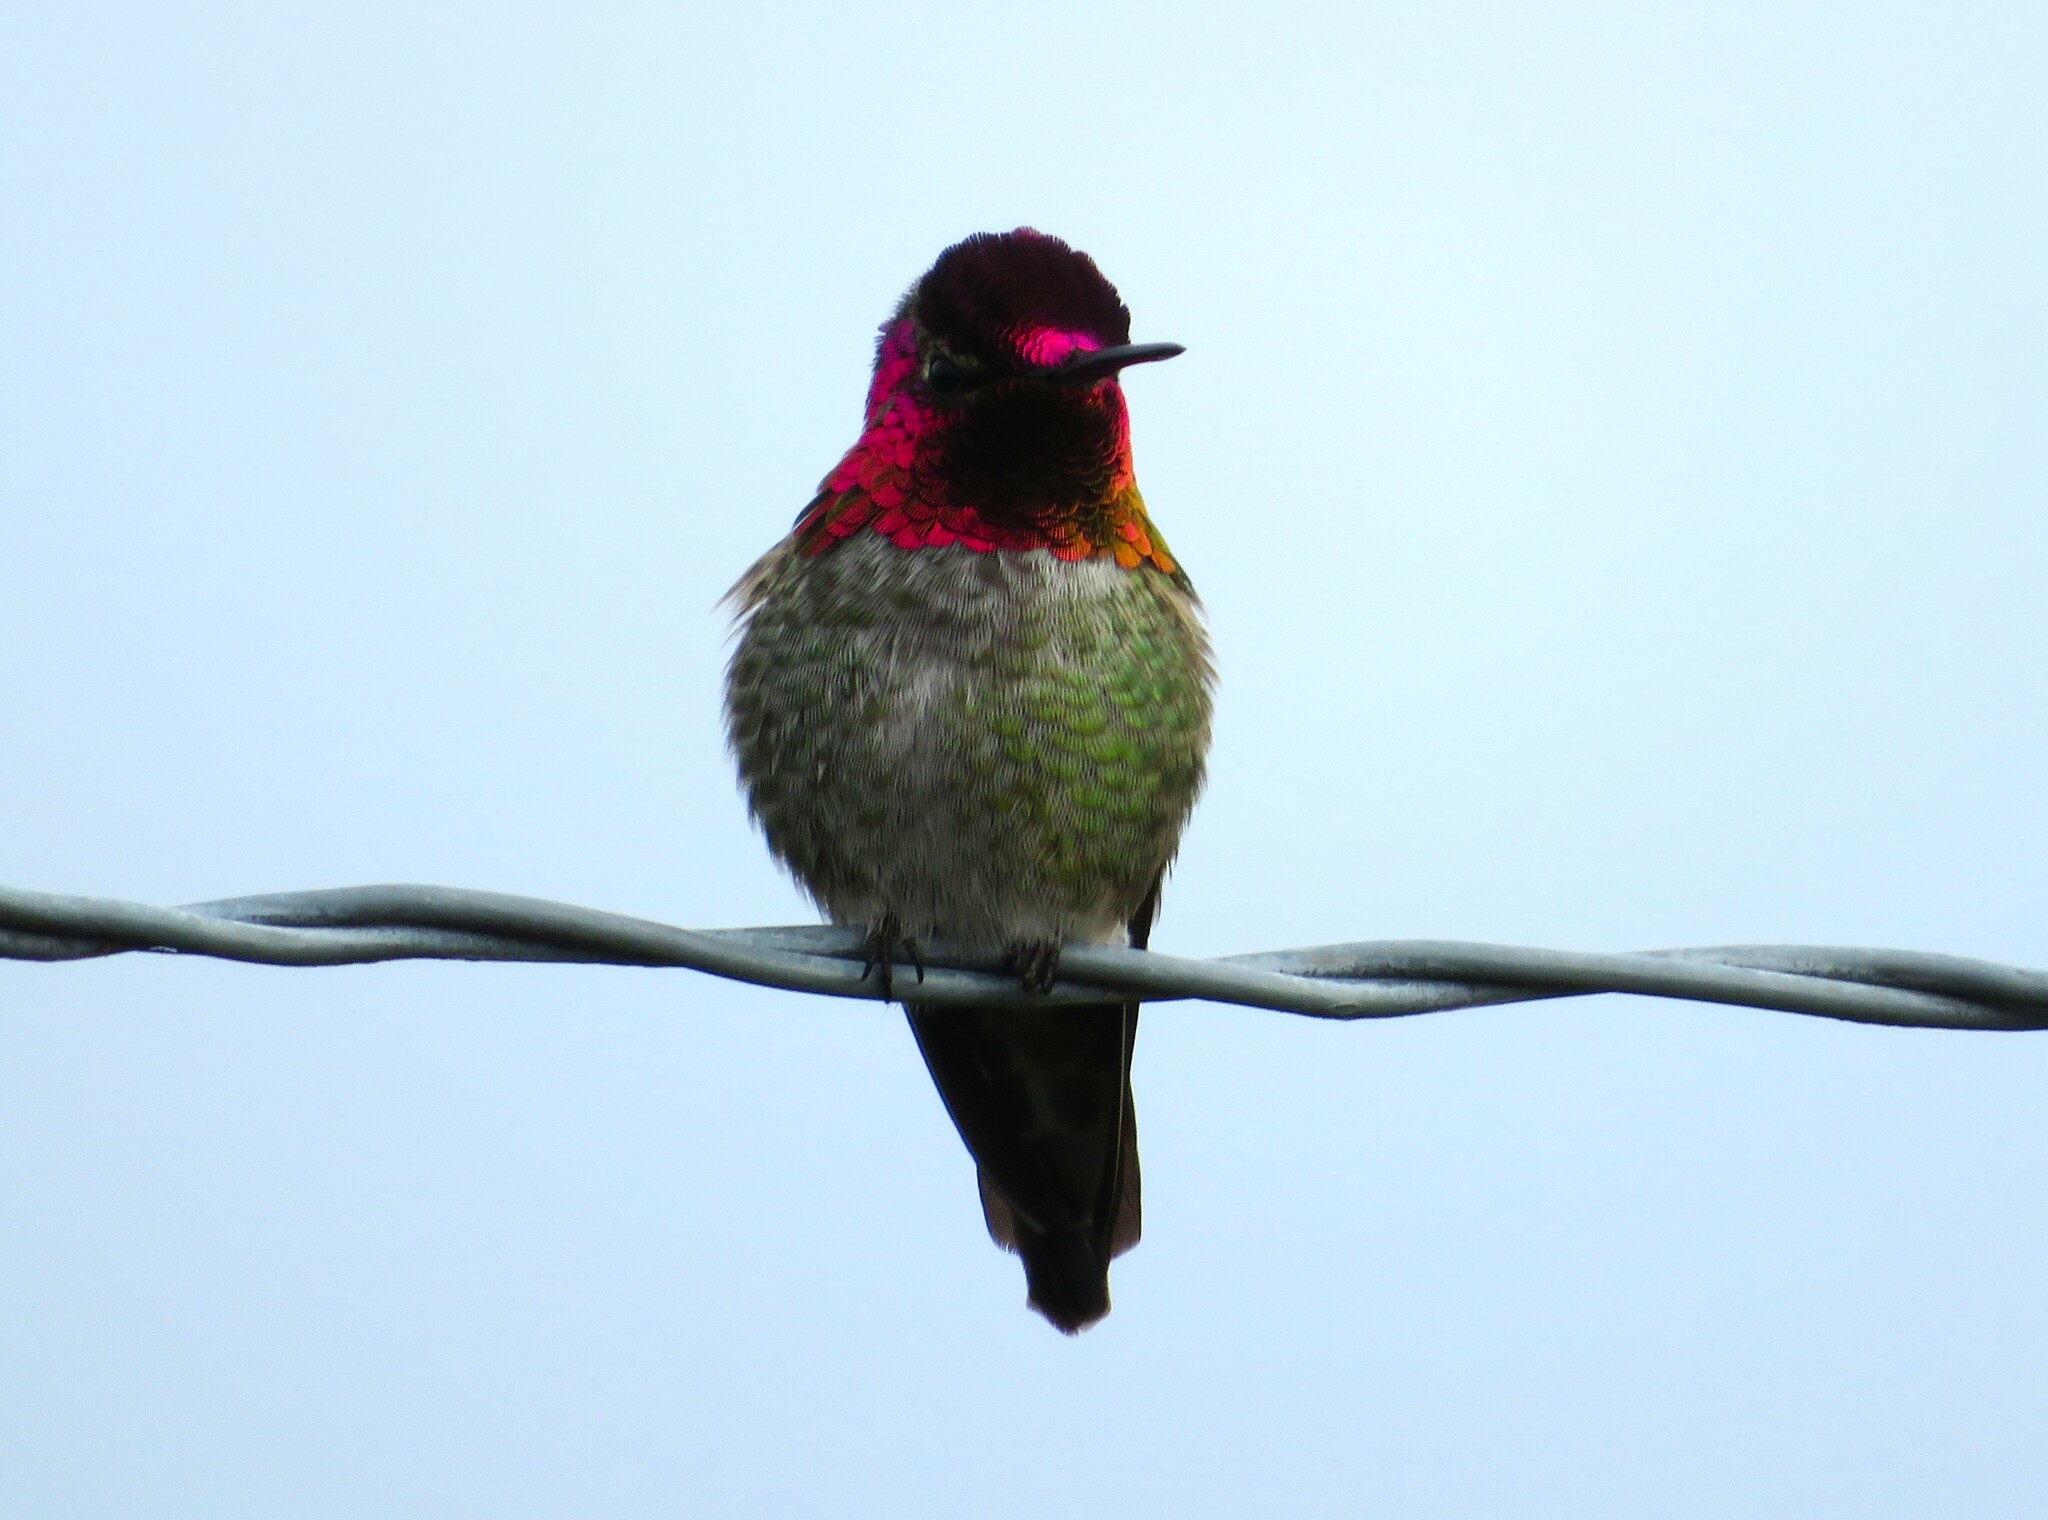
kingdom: Animalia
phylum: Chordata
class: Aves
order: Apodiformes
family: Trochilidae
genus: Calypte
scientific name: Calypte anna
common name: Anna's hummingbird
